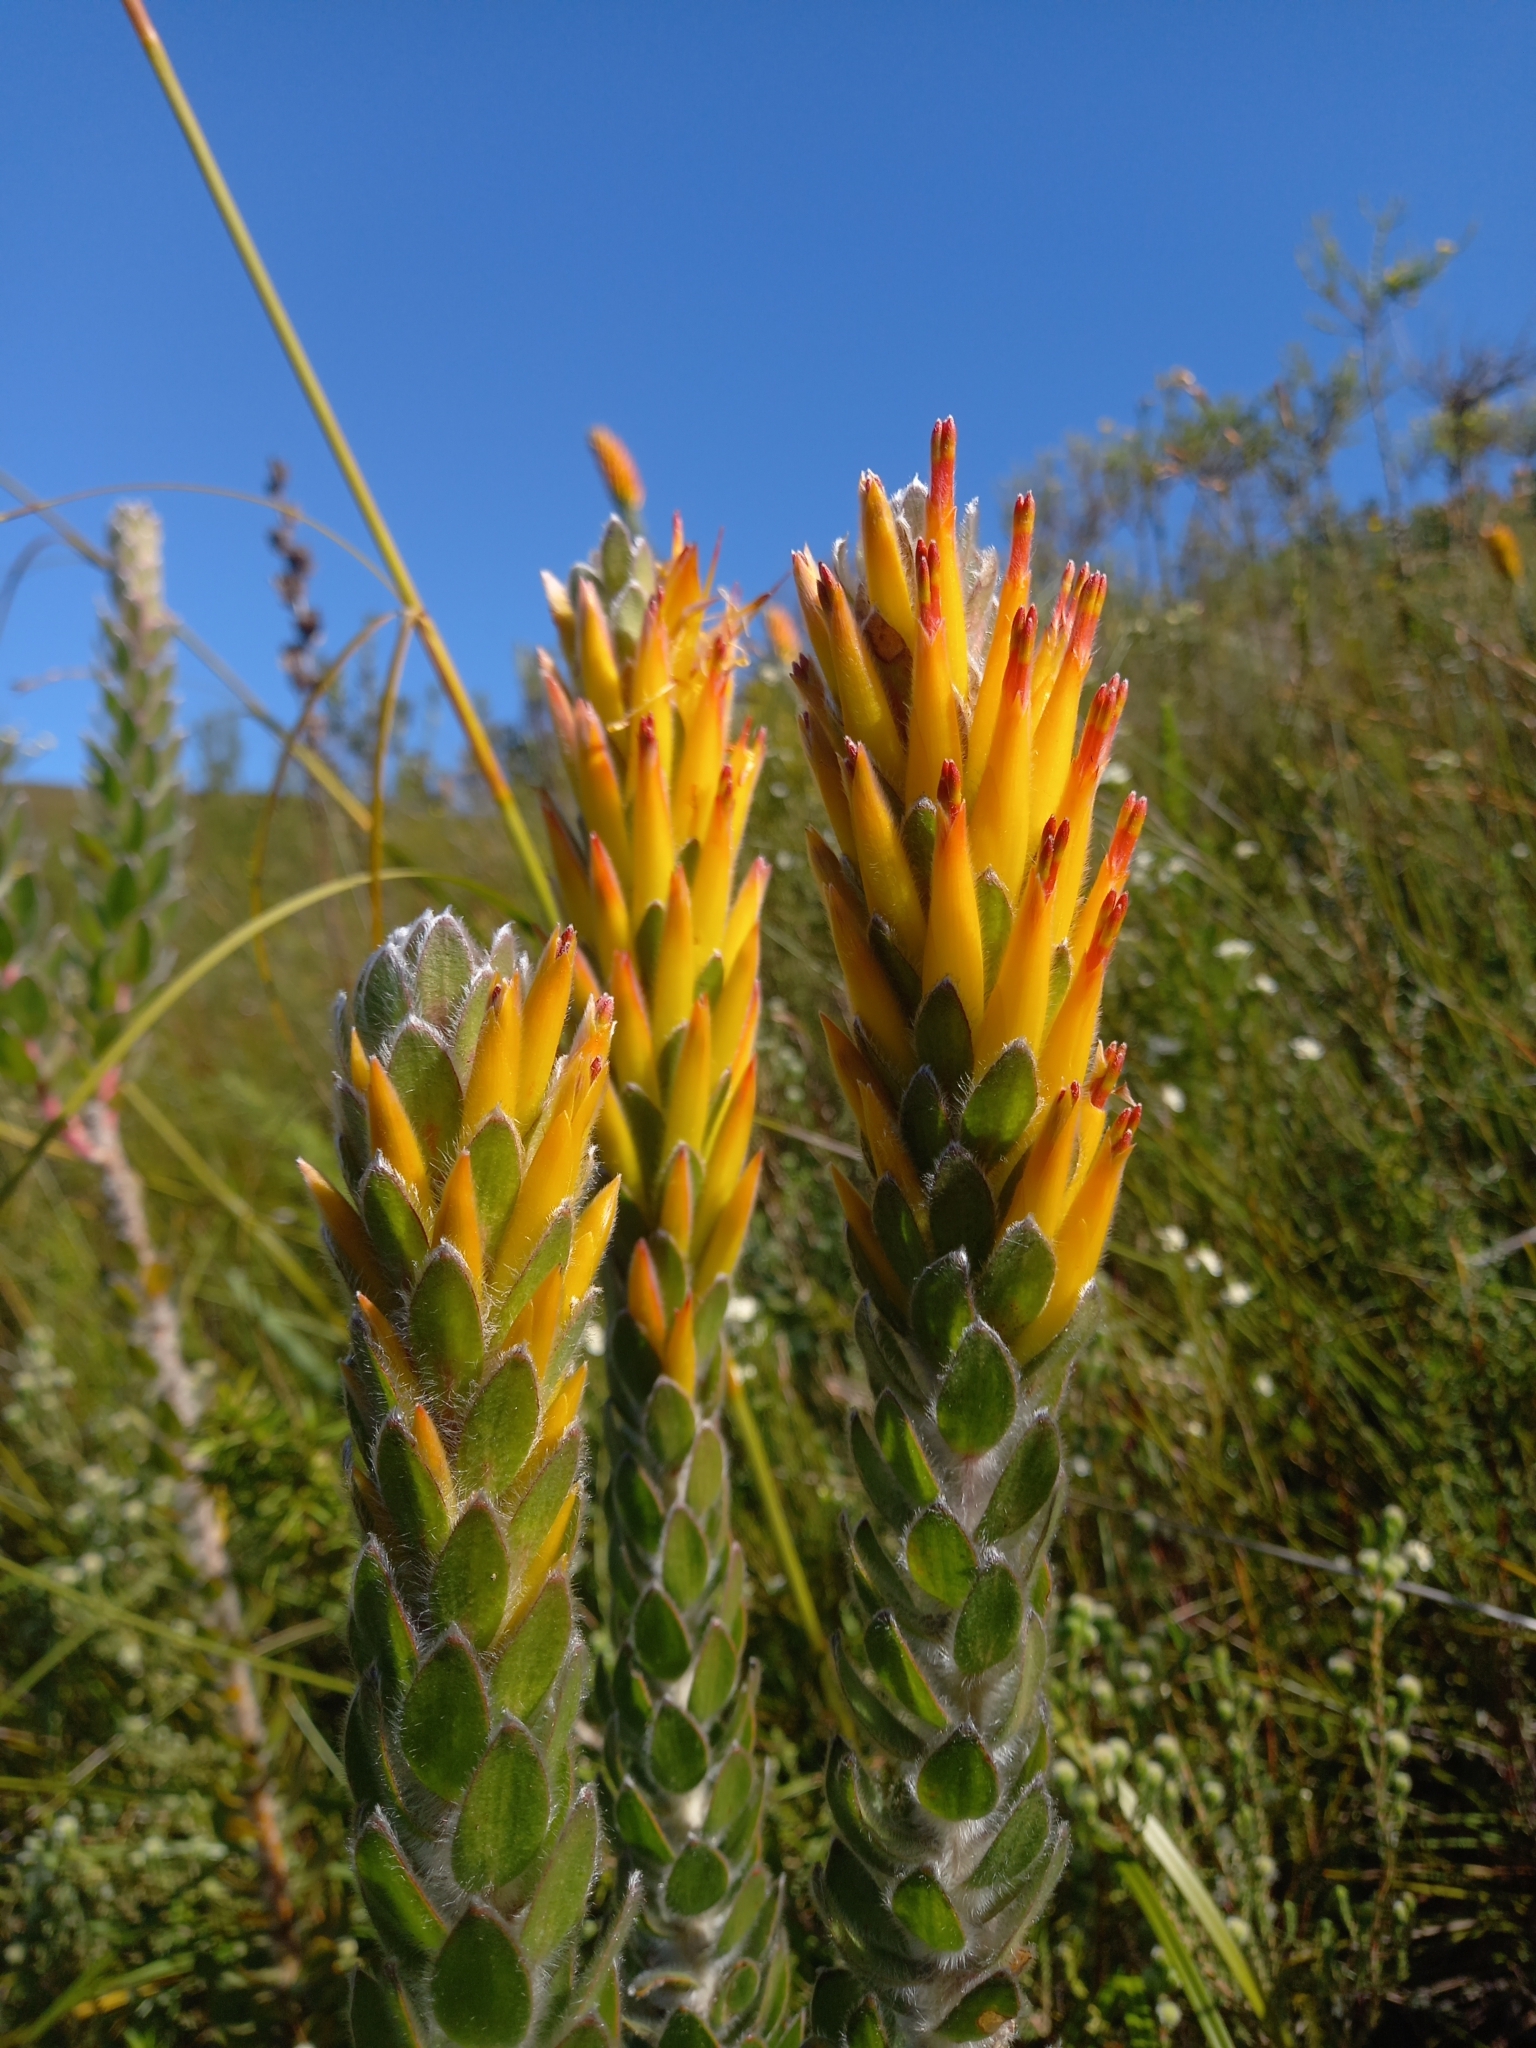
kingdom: Plantae
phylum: Tracheophyta
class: Magnoliopsida
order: Proteales
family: Proteaceae
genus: Mimetes
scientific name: Mimetes pauciflora
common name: Three-flowered pagoda
